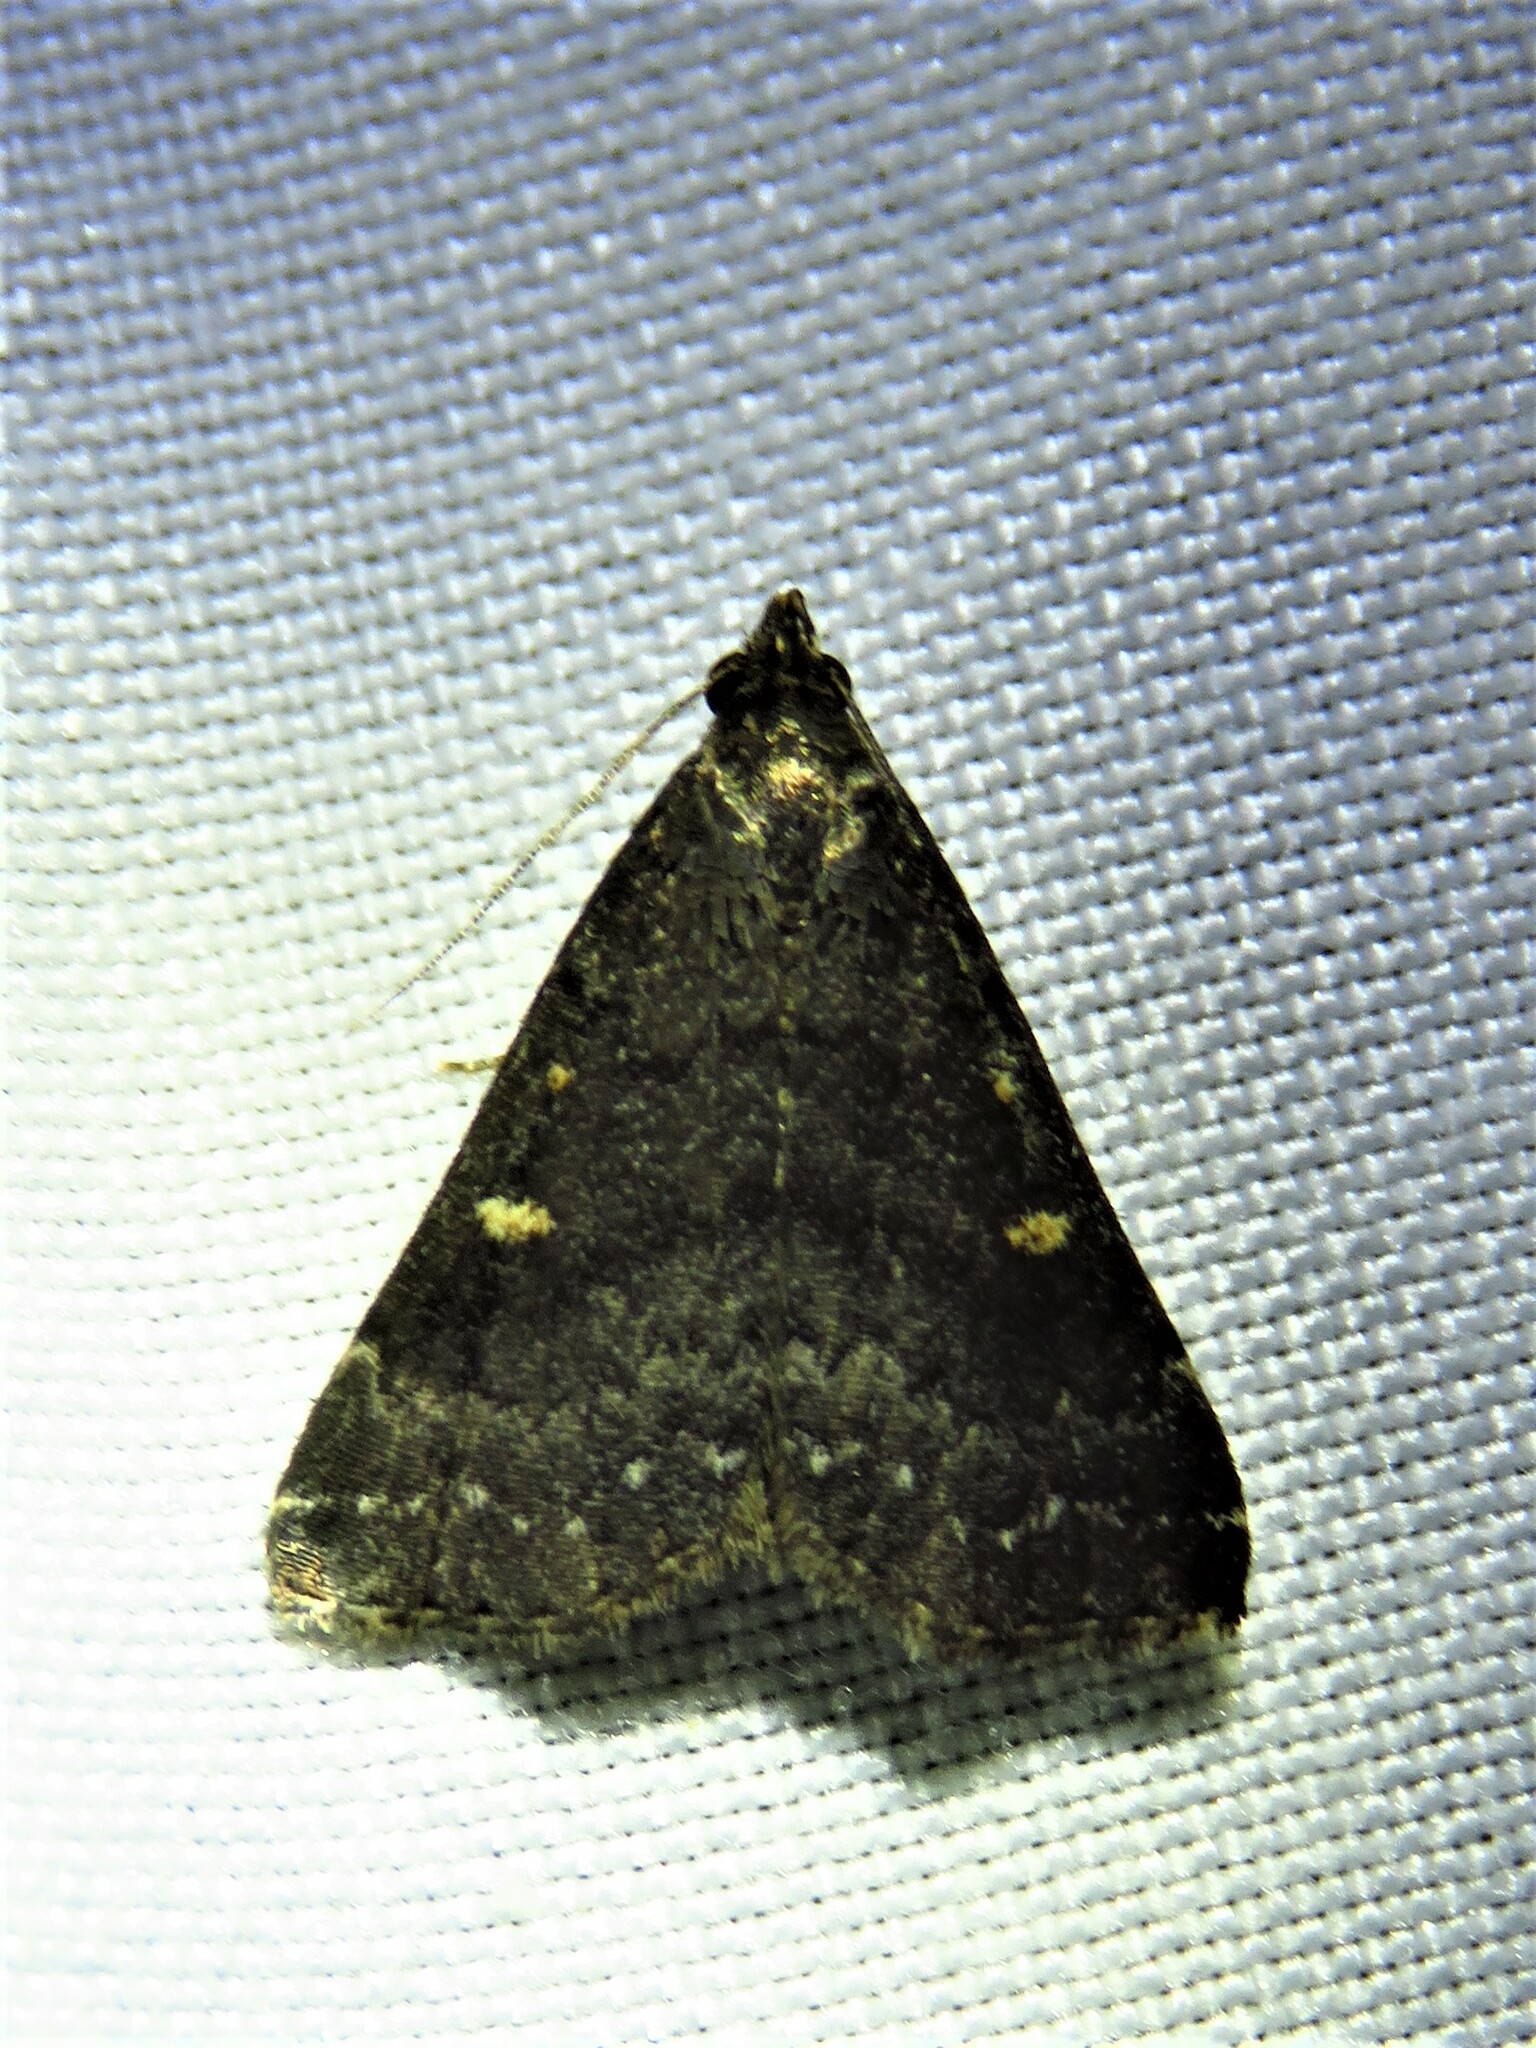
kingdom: Animalia
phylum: Arthropoda
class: Insecta
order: Lepidoptera
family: Erebidae
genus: Tetanolita
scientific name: Tetanolita mynesalis
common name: Smoky tetanolita moth
